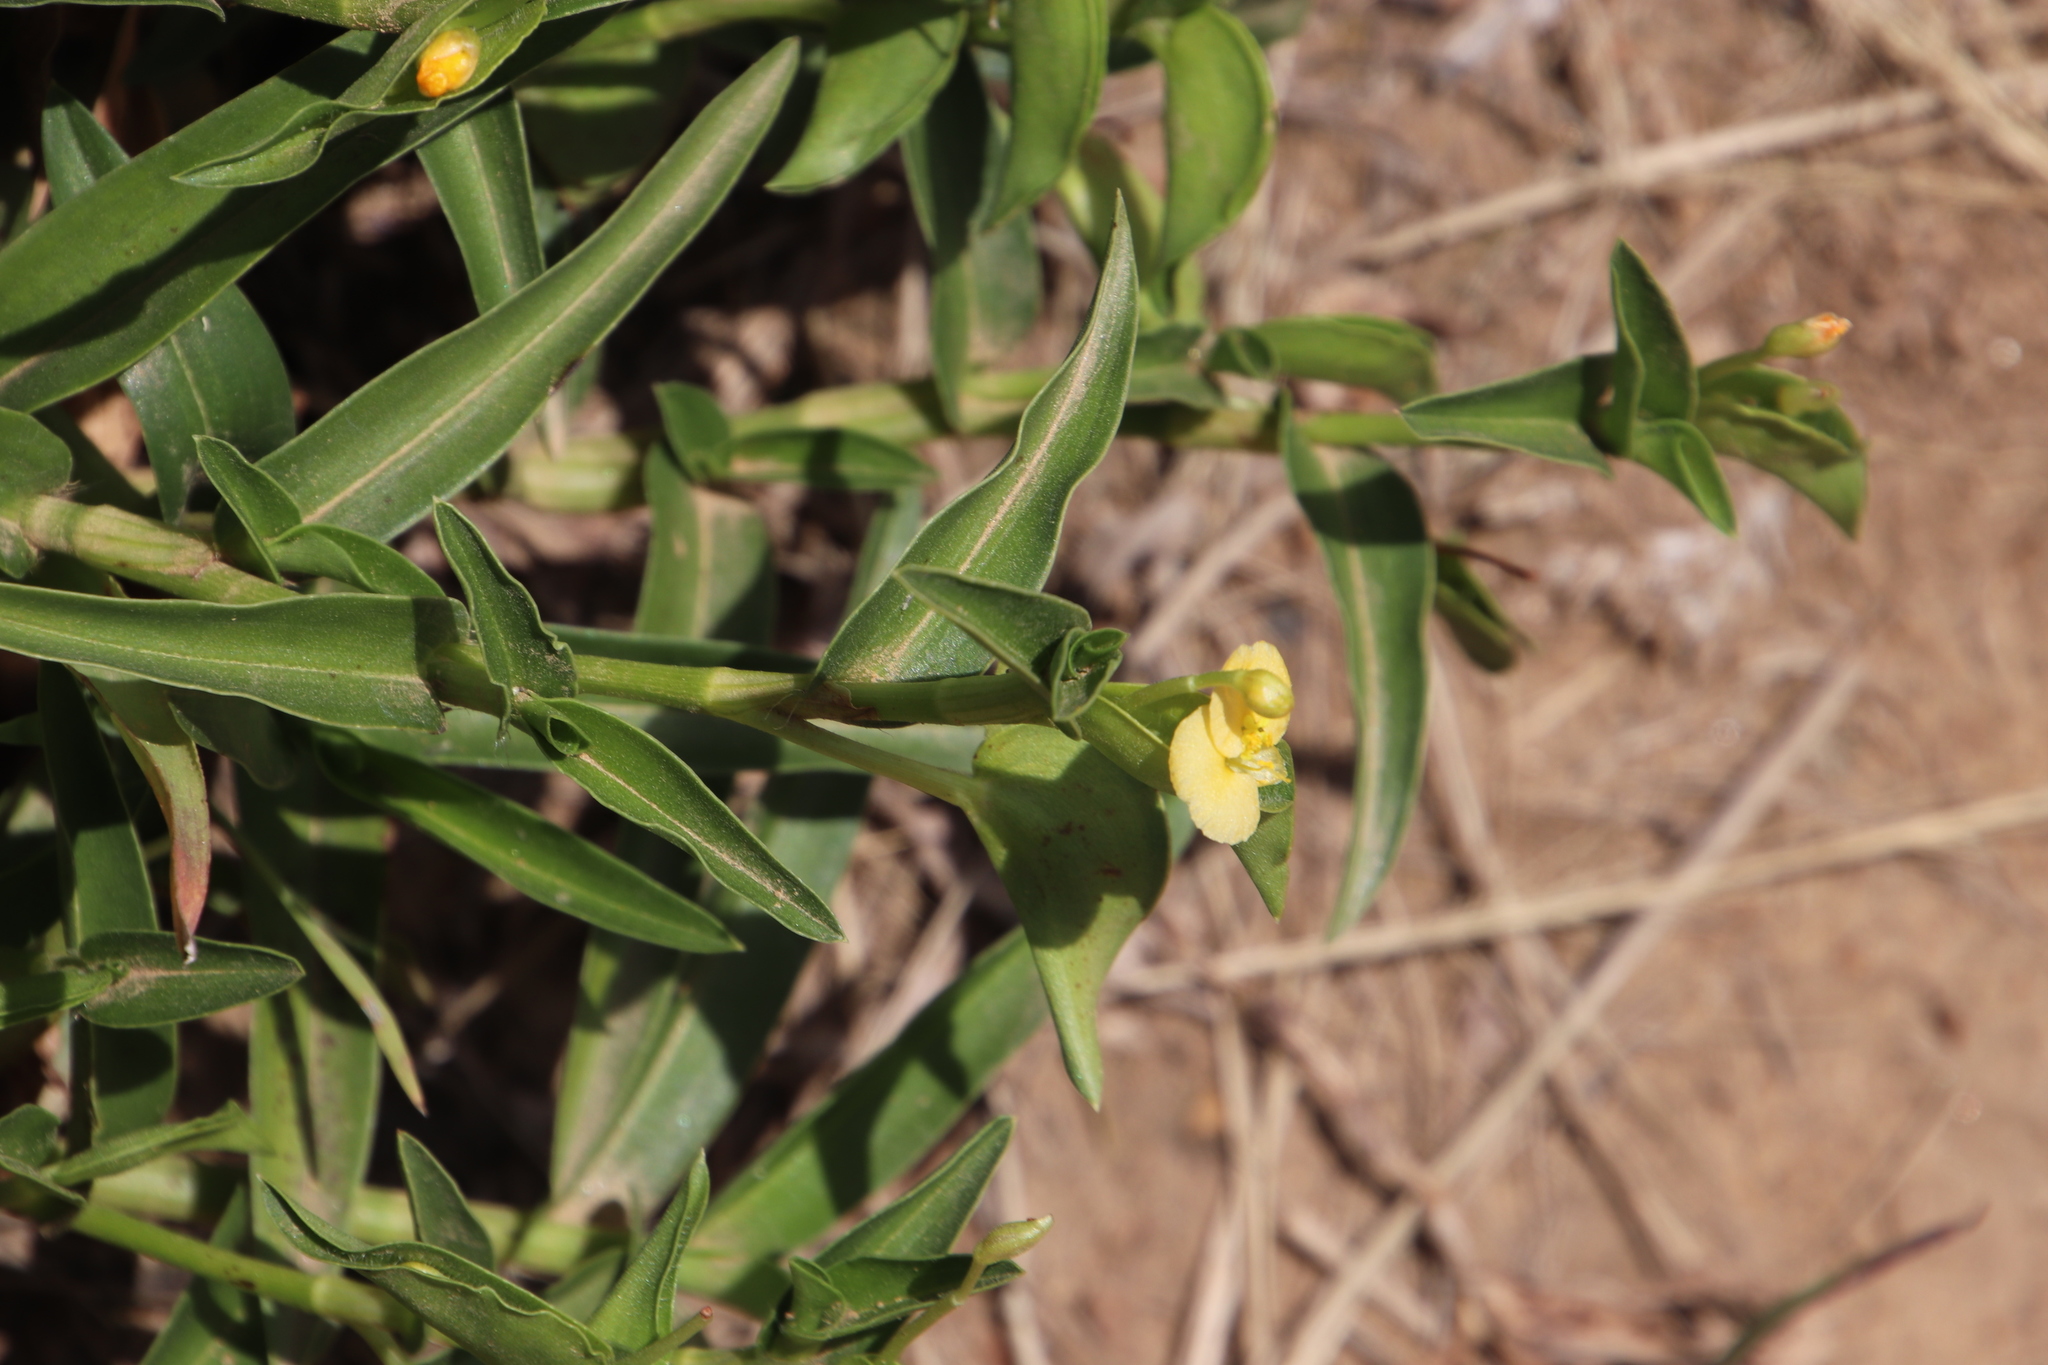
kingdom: Plantae
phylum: Tracheophyta
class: Liliopsida
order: Commelinales
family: Commelinaceae
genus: Commelina
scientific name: Commelina africana
